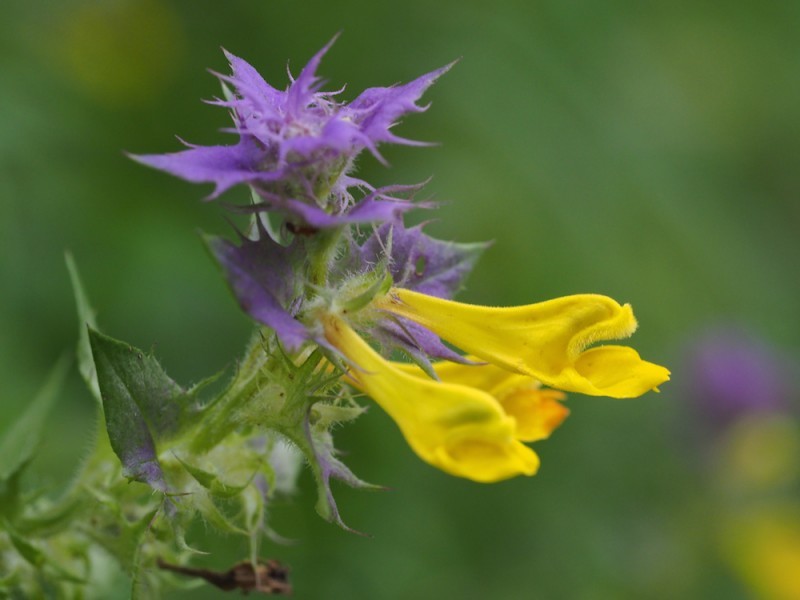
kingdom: Plantae
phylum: Tracheophyta
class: Magnoliopsida
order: Lamiales
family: Orobanchaceae
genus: Melampyrum
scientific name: Melampyrum nemorosum
